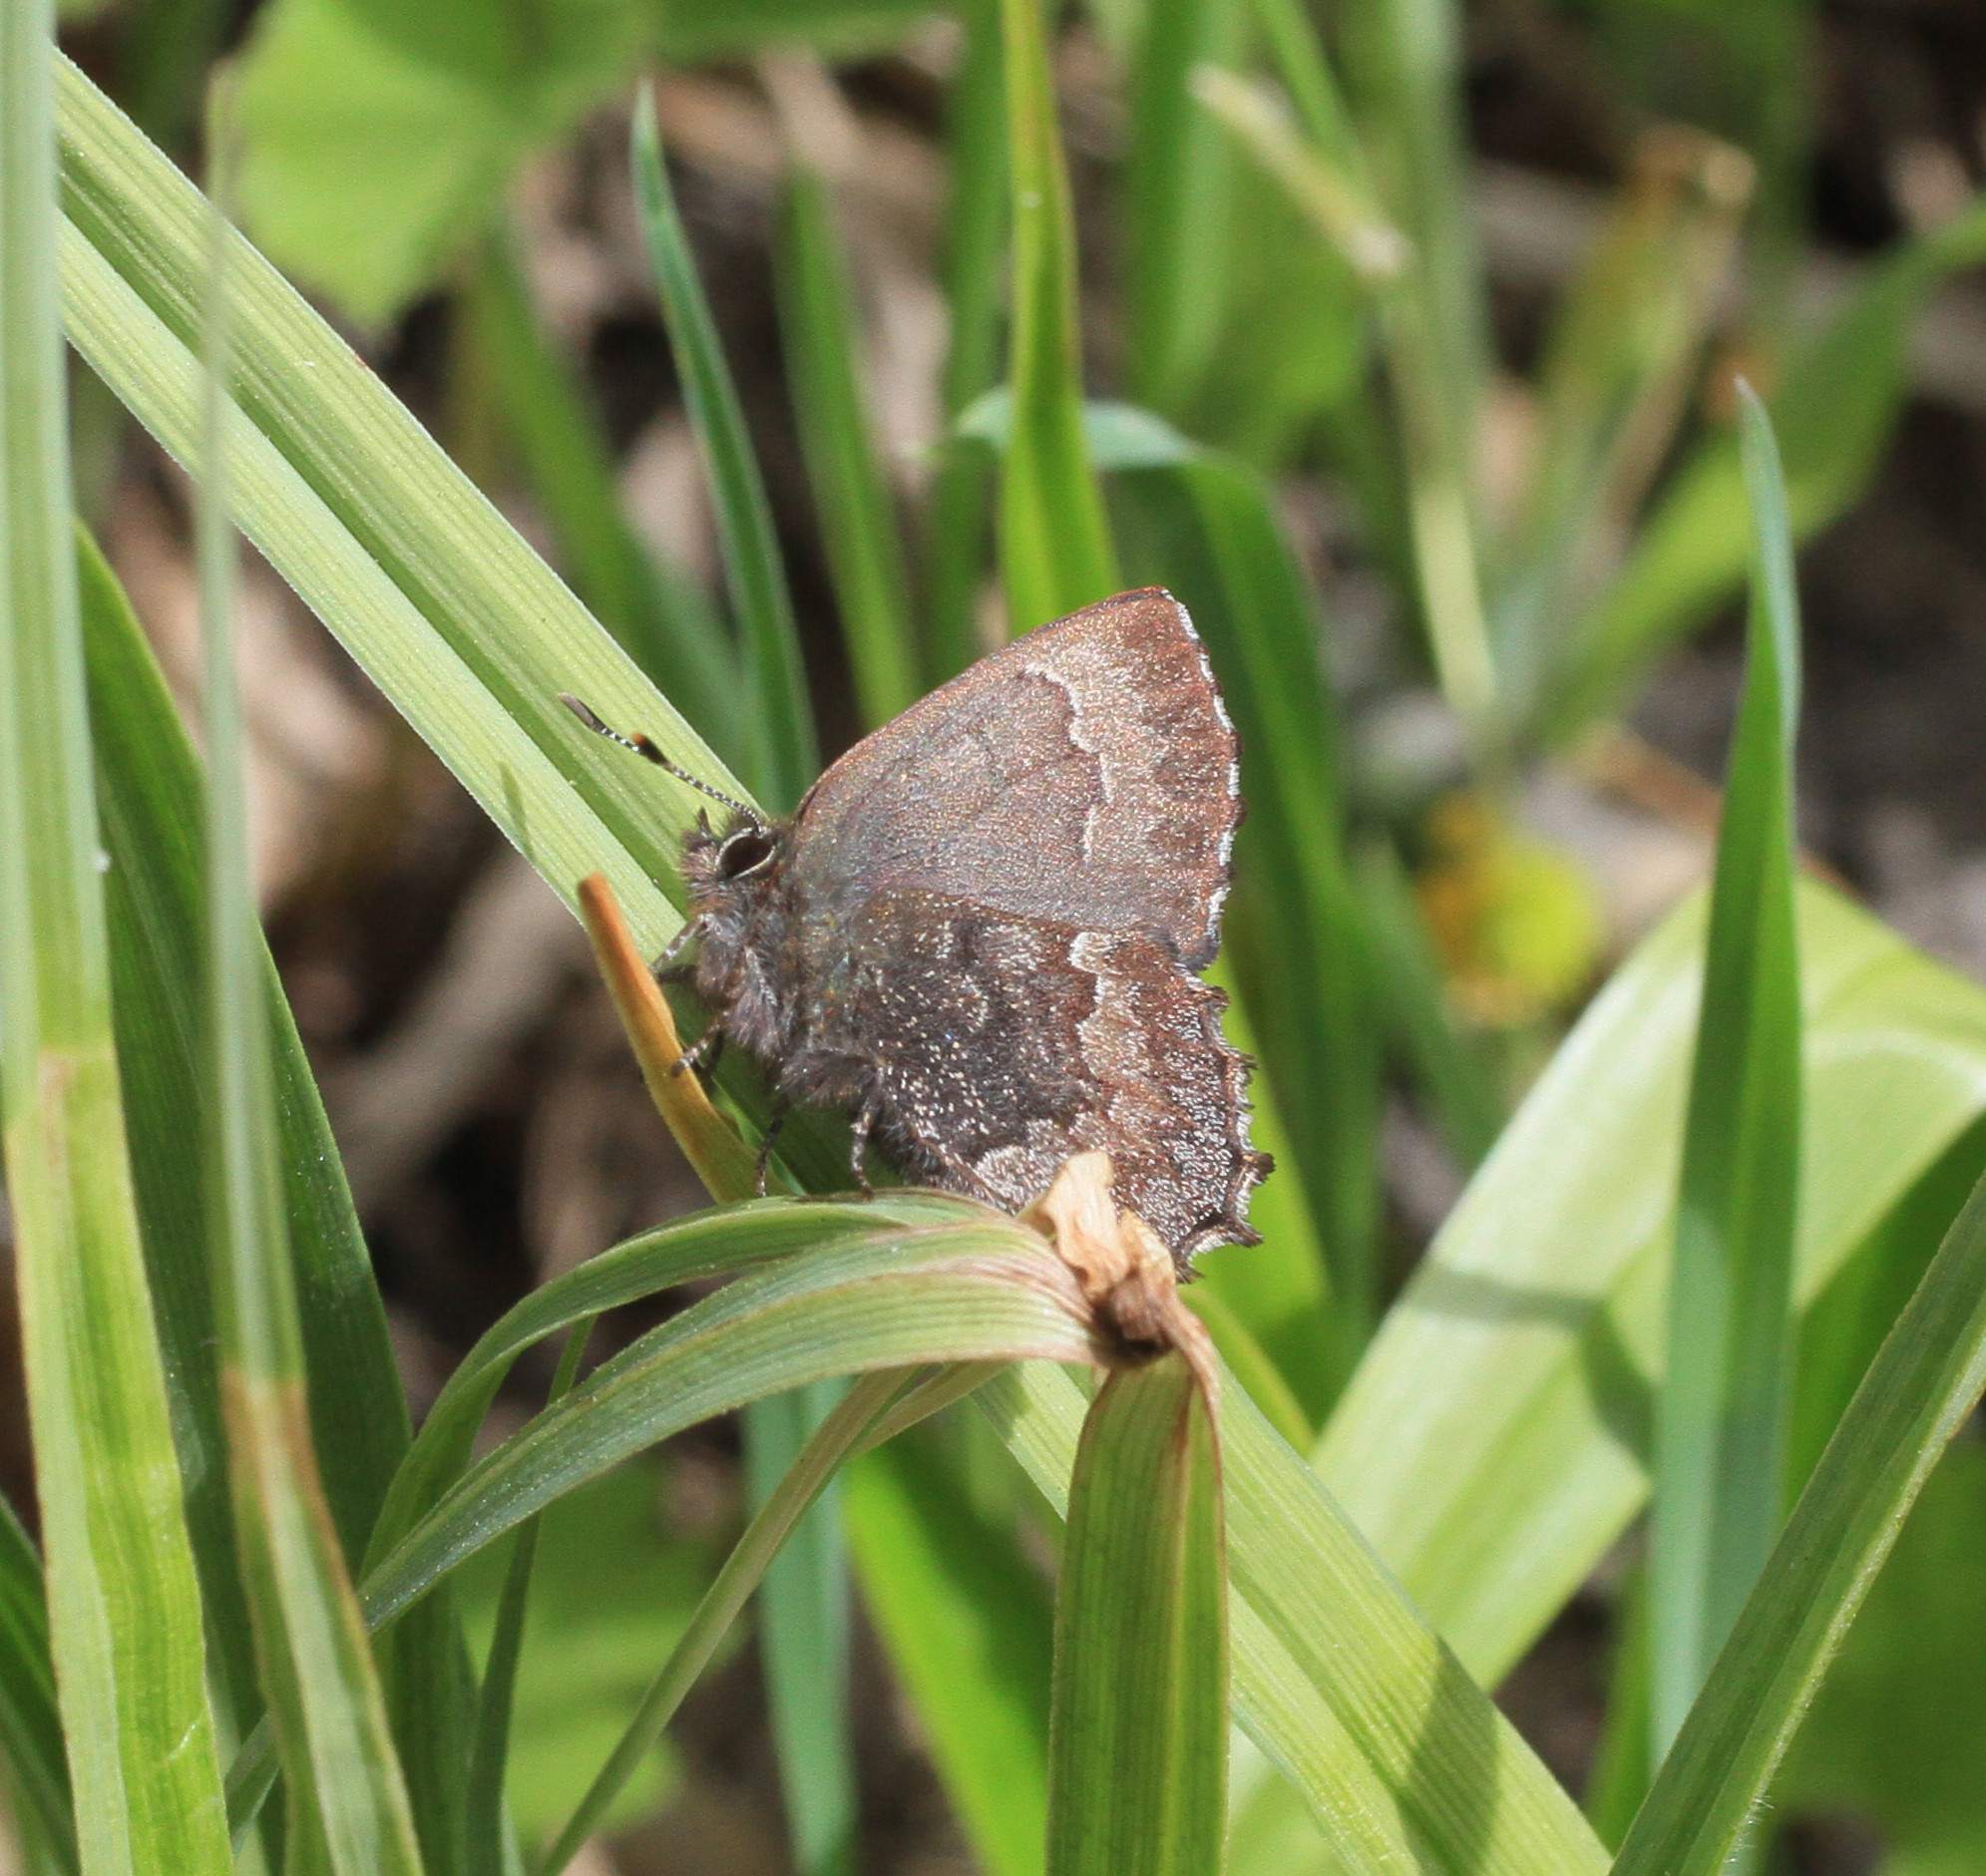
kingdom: Animalia
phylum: Arthropoda
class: Insecta
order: Lepidoptera
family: Lycaenidae
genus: Ginzia
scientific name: Ginzia Ahlbergia frivaldszkyi
